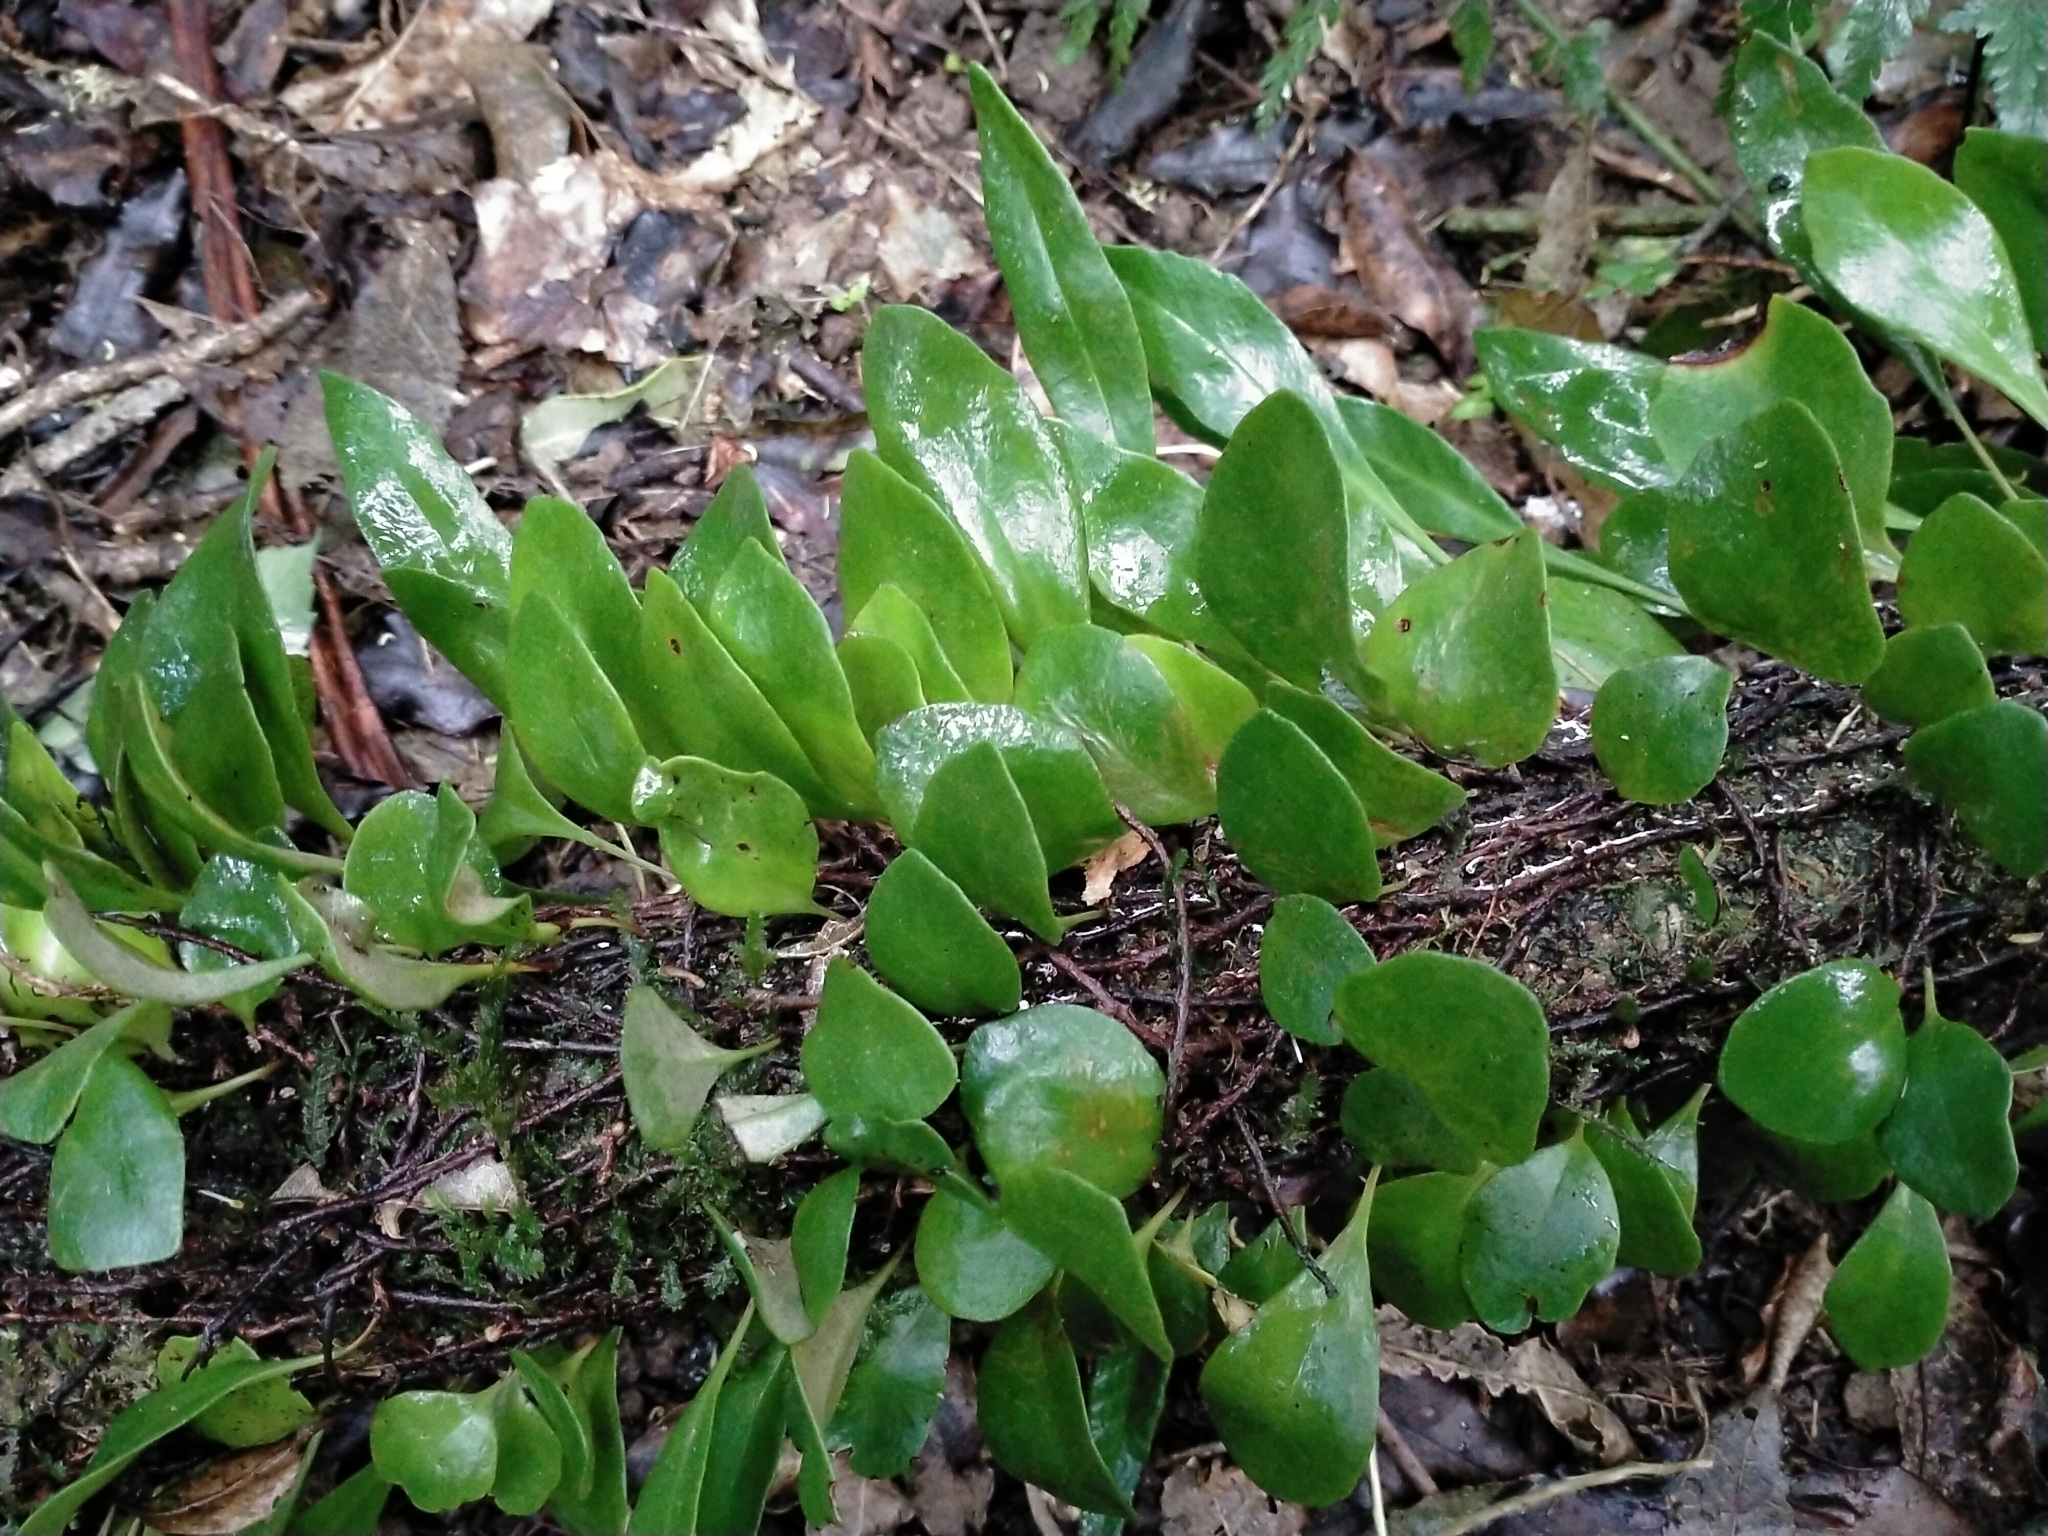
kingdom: Plantae
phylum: Tracheophyta
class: Polypodiopsida
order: Polypodiales
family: Polypodiaceae
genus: Pyrrosia
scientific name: Pyrrosia eleagnifolia
